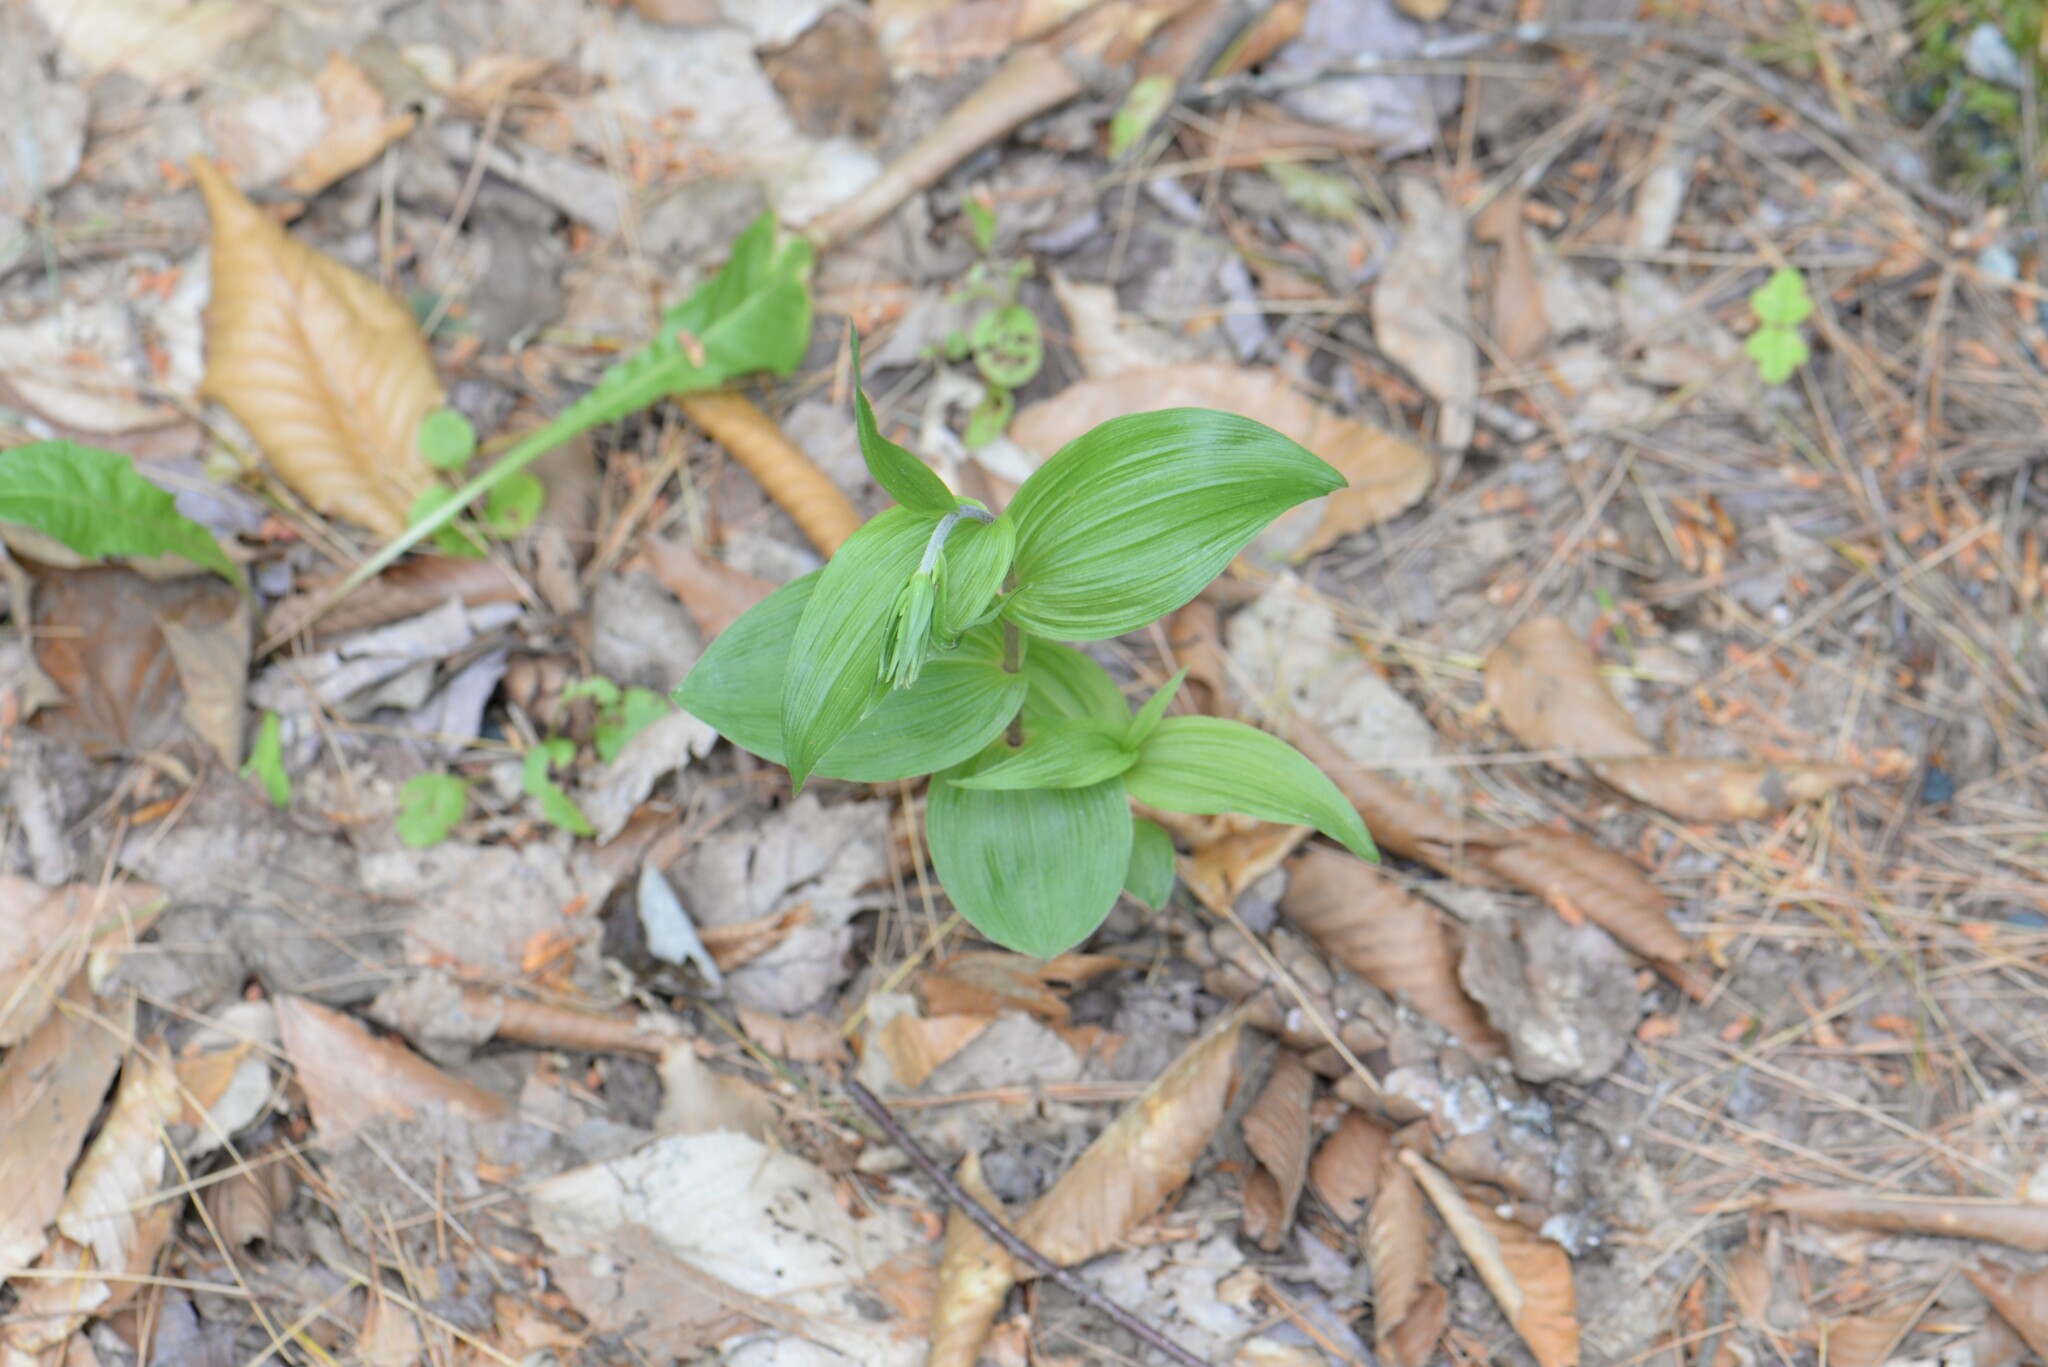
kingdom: Plantae
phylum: Tracheophyta
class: Liliopsida
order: Asparagales
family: Orchidaceae
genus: Epipactis
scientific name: Epipactis helleborine
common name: Broad-leaved helleborine
